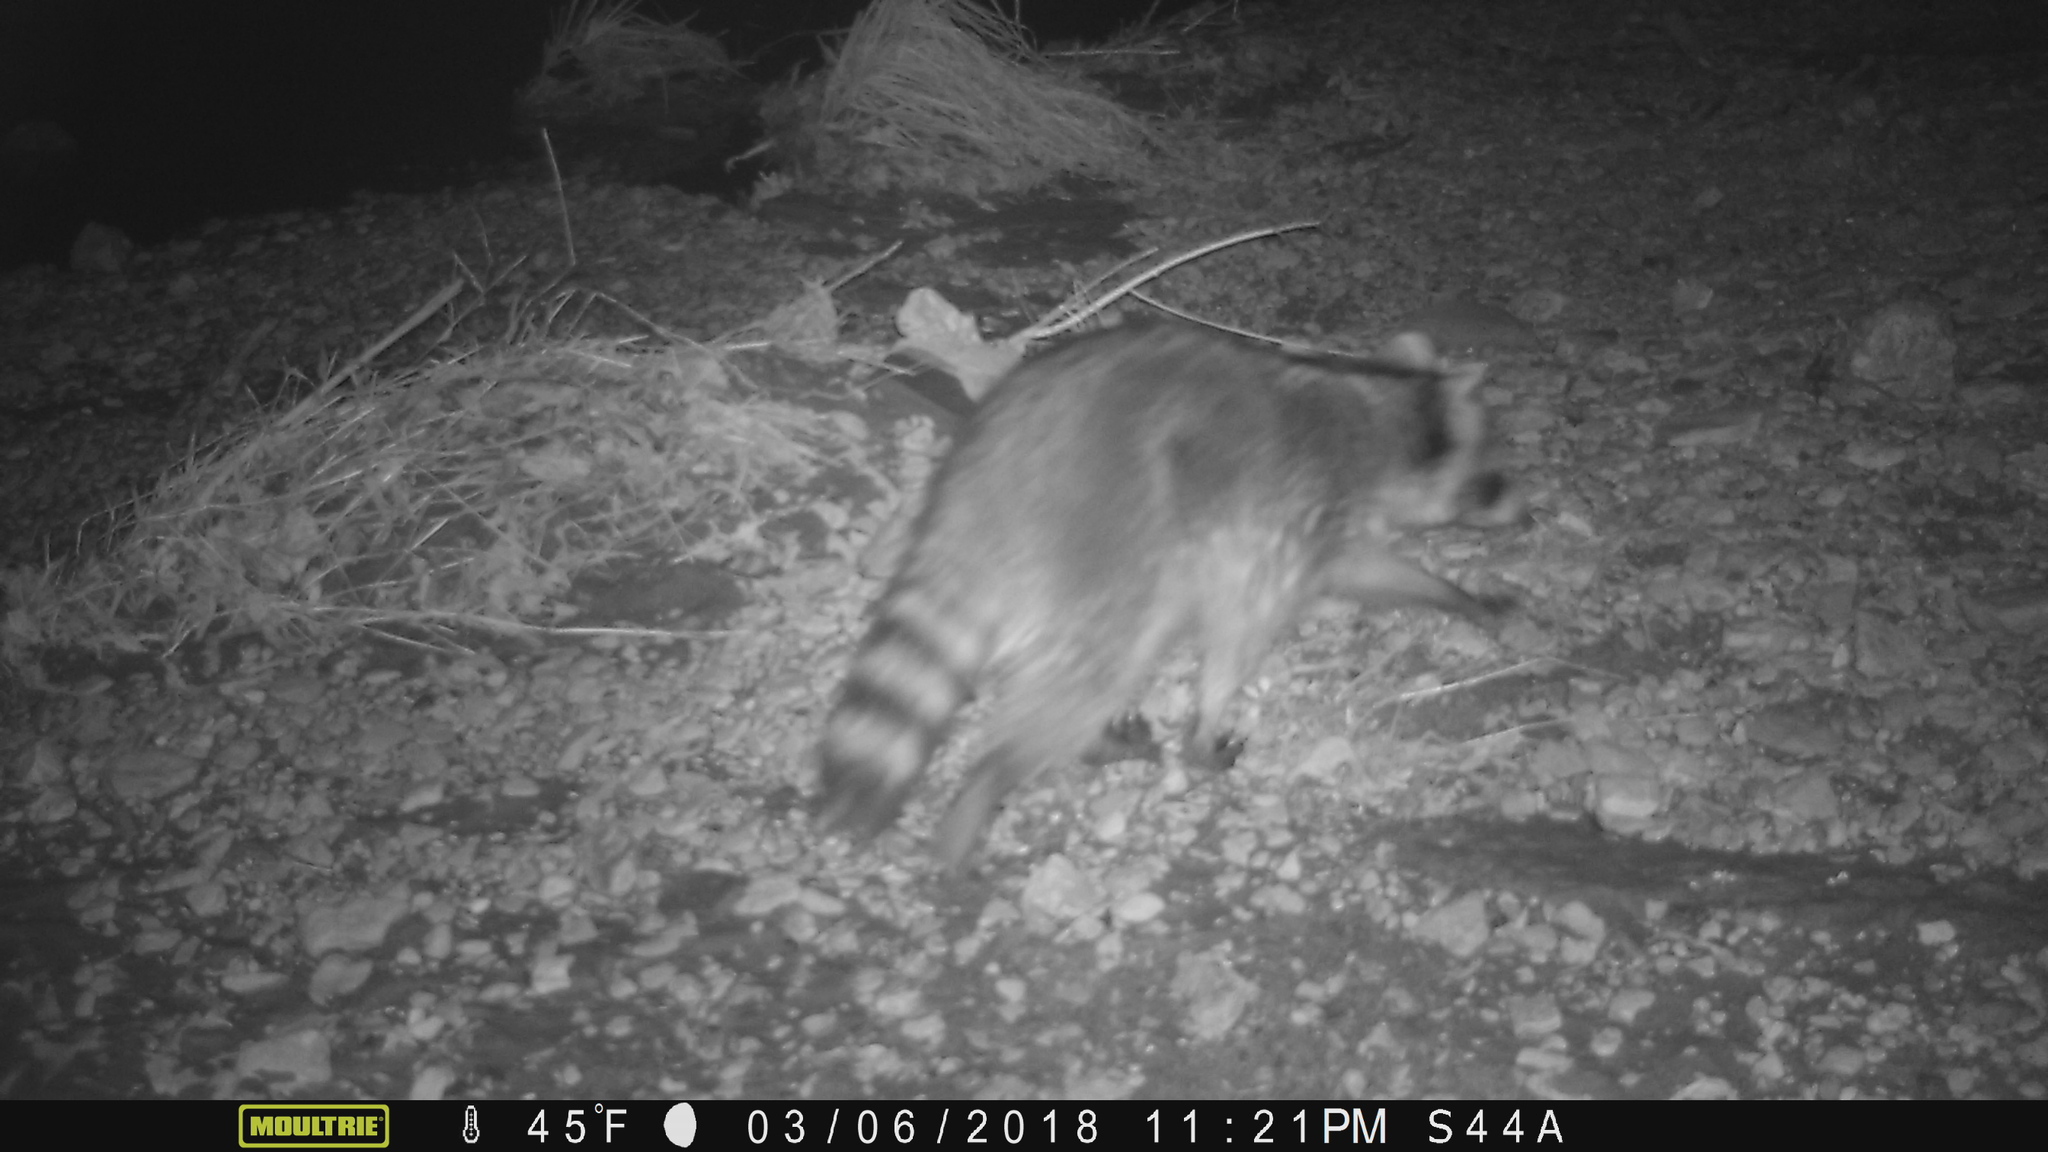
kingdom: Animalia
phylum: Chordata
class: Mammalia
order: Carnivora
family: Procyonidae
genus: Procyon
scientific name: Procyon lotor
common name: Raccoon
